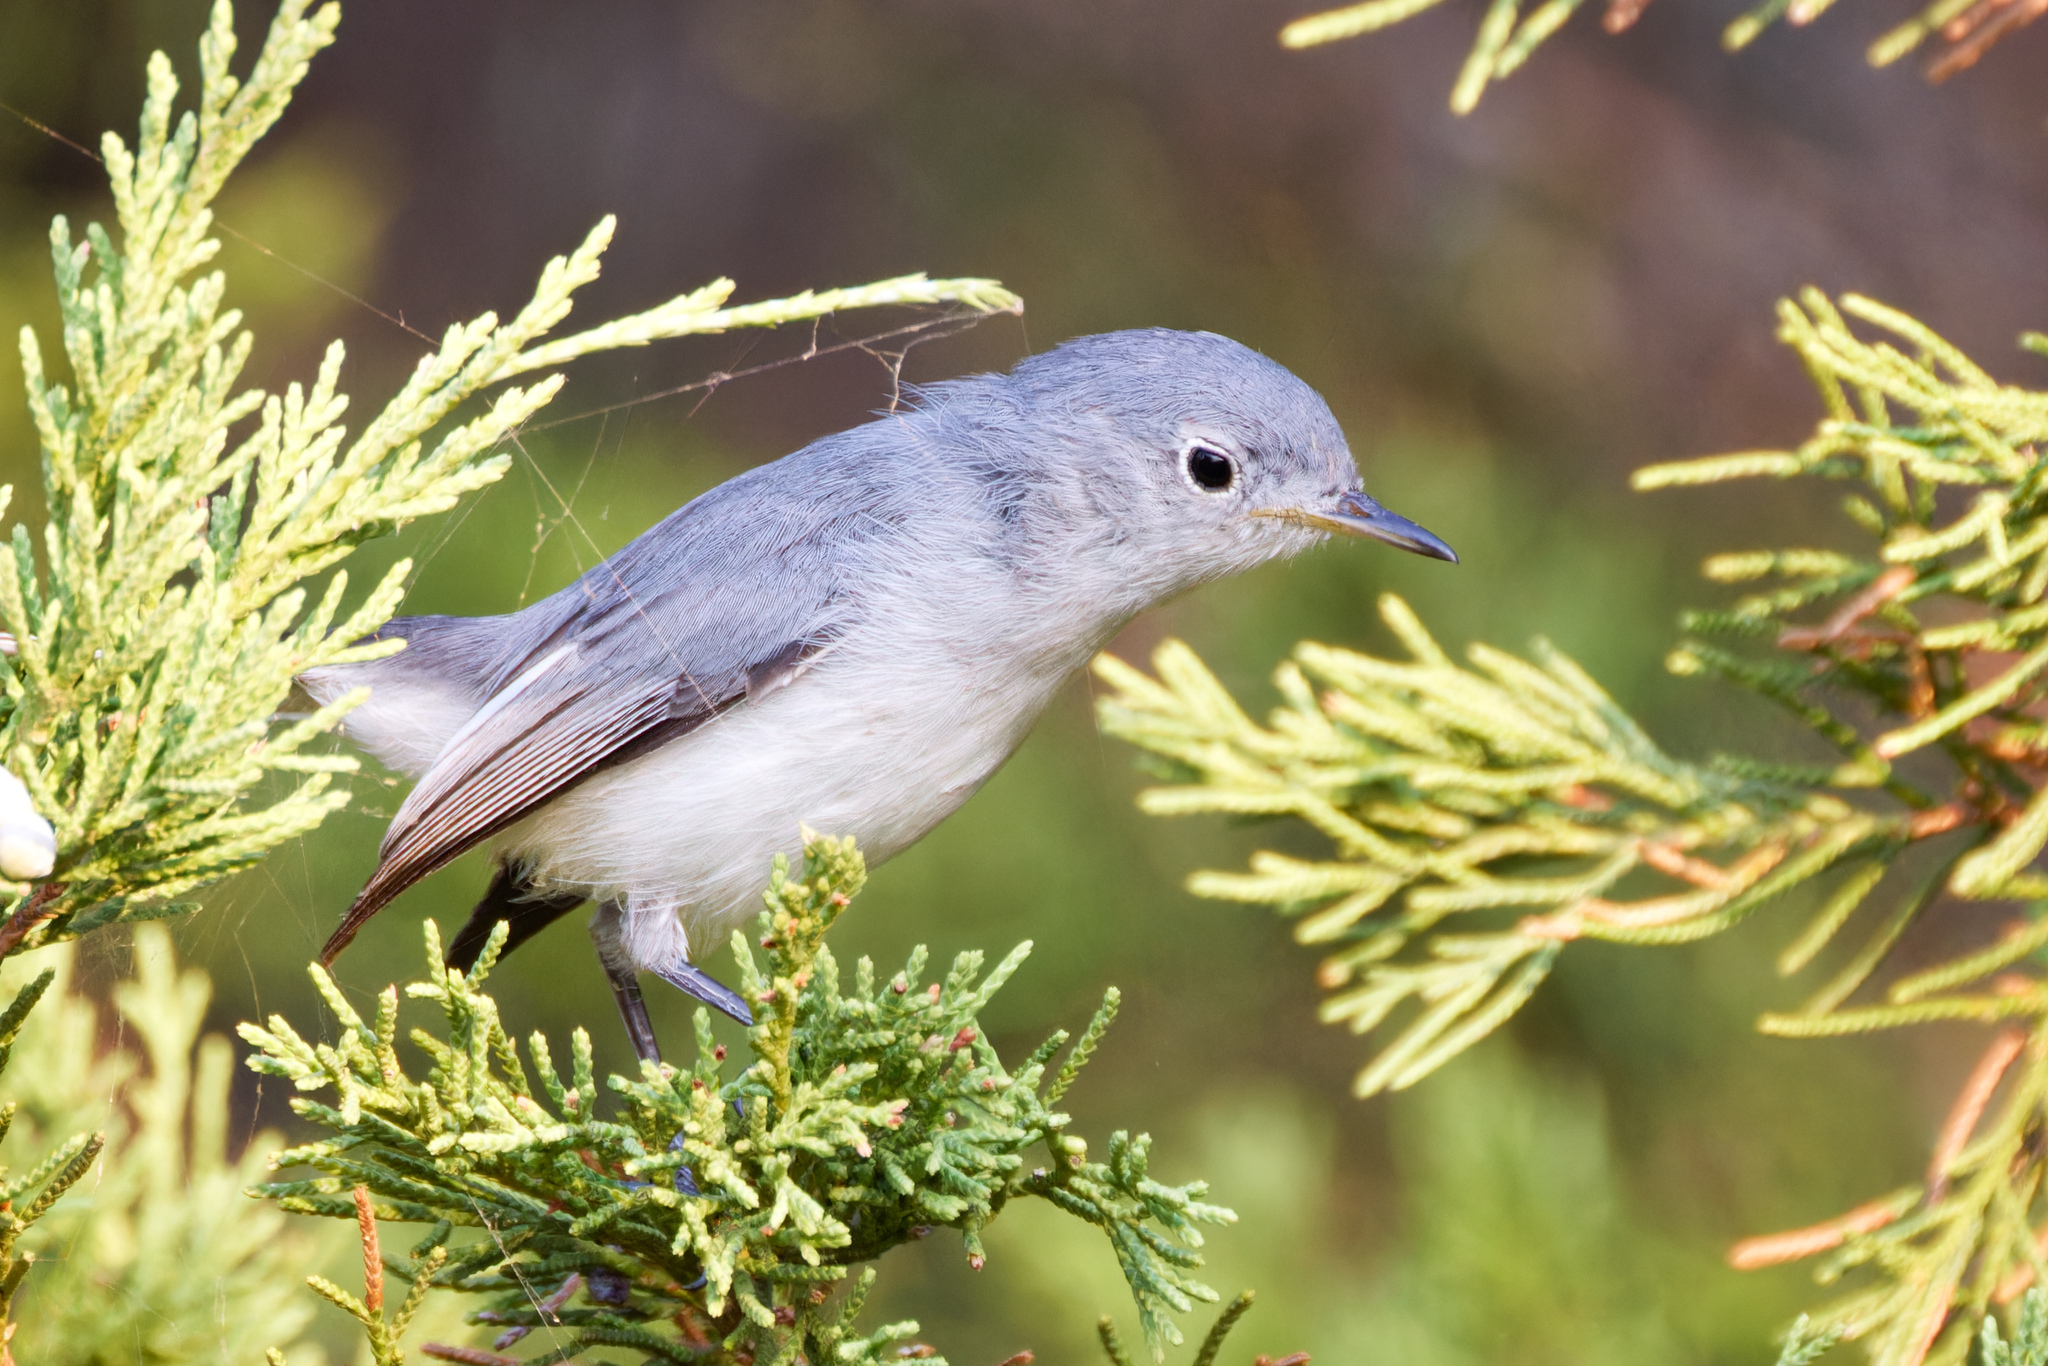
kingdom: Animalia
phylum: Chordata
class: Aves
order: Passeriformes
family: Polioptilidae
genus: Polioptila
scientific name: Polioptila caerulea
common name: Blue-gray gnatcatcher
